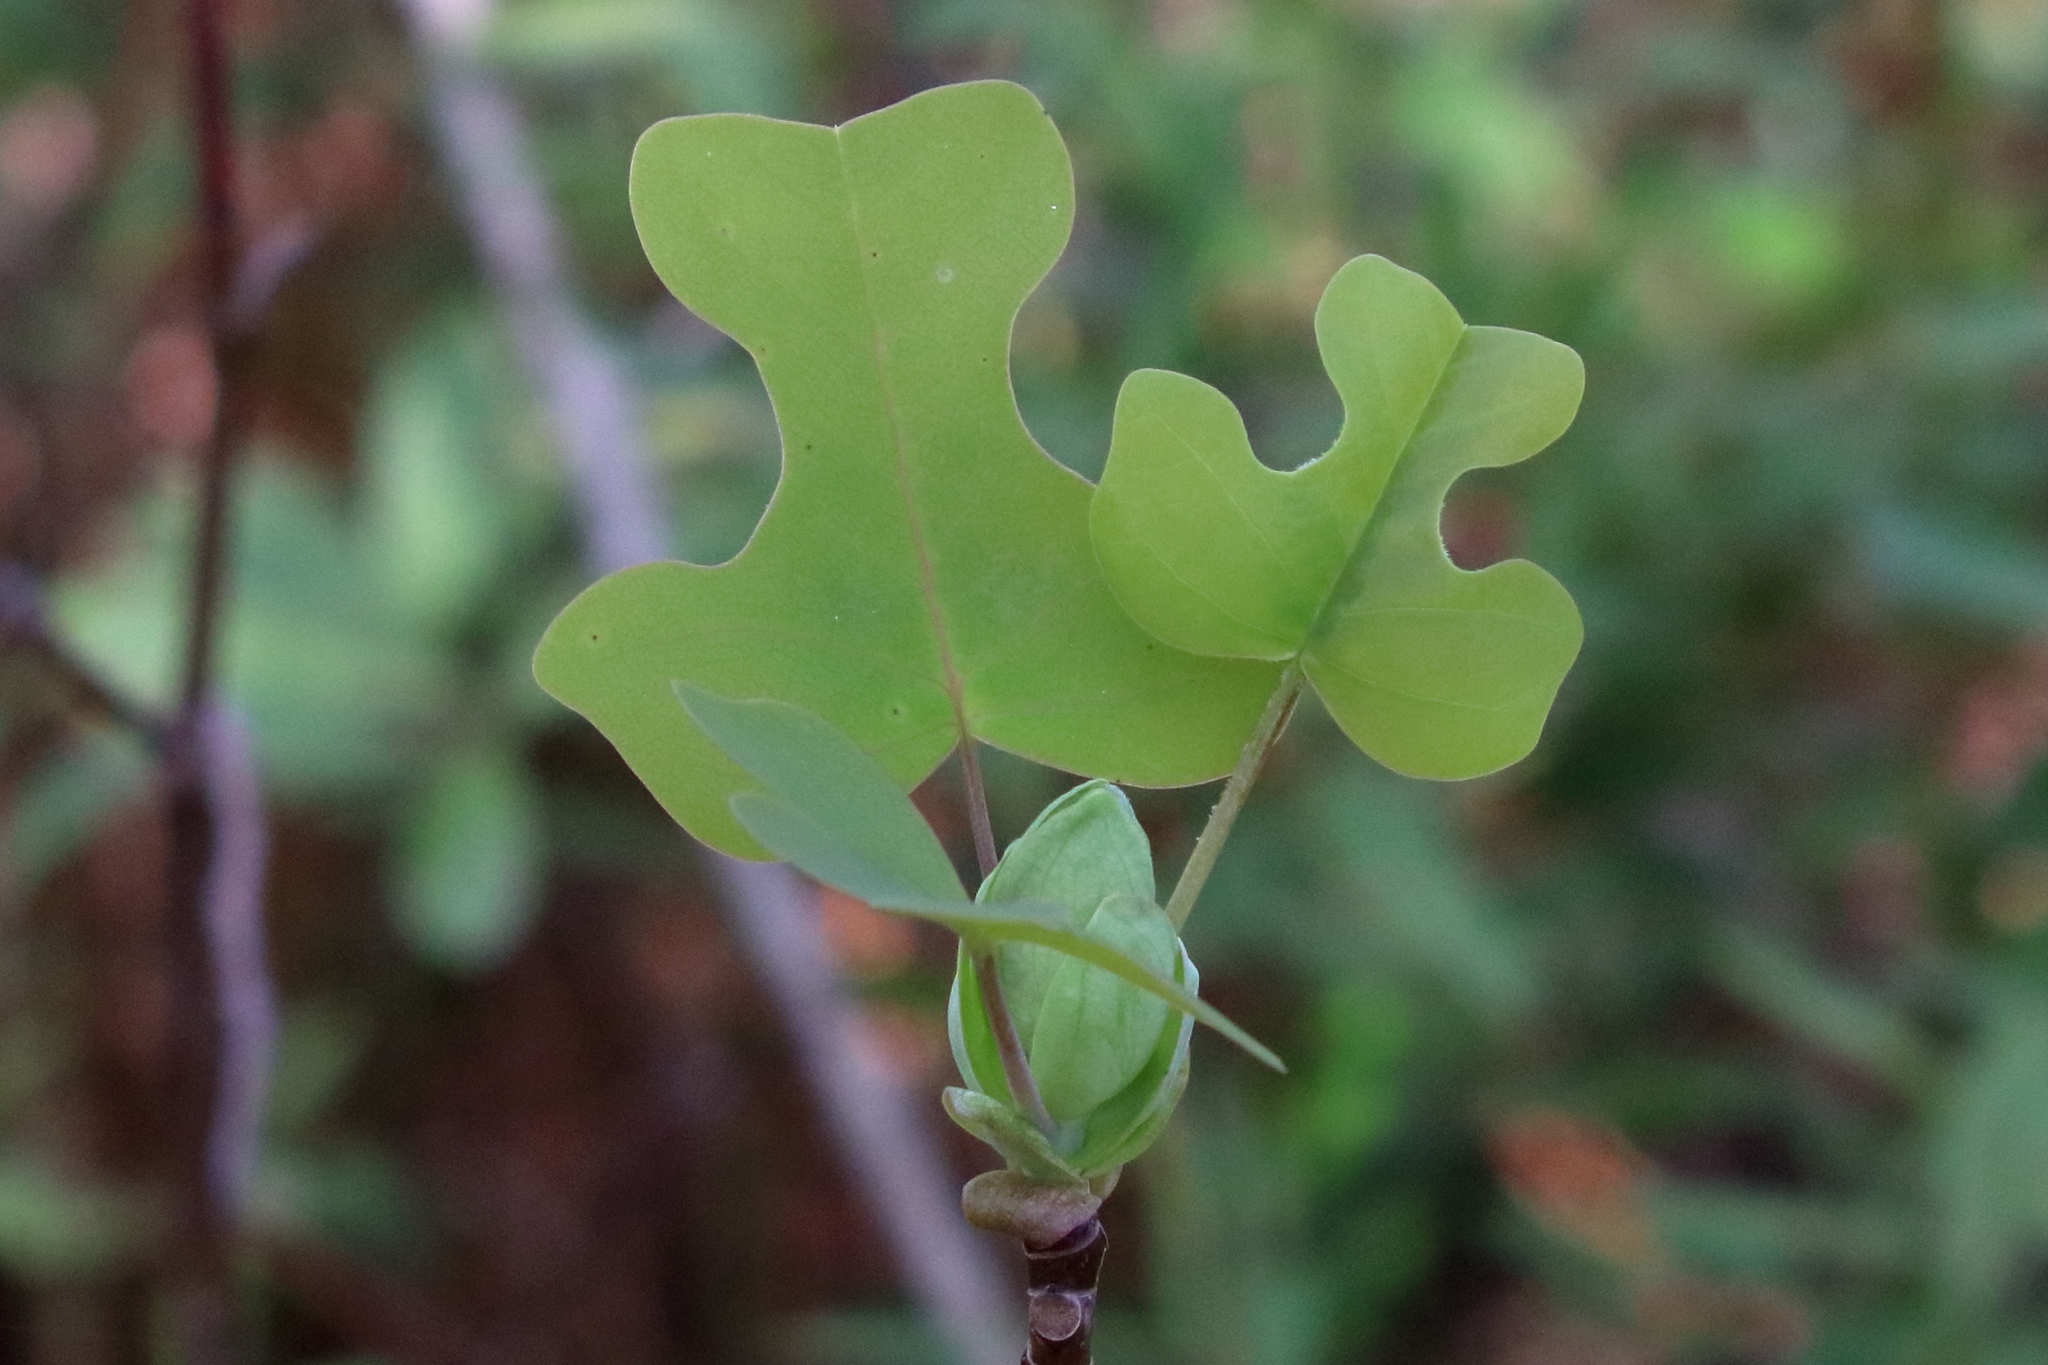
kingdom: Plantae
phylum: Tracheophyta
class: Magnoliopsida
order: Magnoliales
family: Magnoliaceae
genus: Liriodendron
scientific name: Liriodendron tulipifera
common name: Tulip tree
